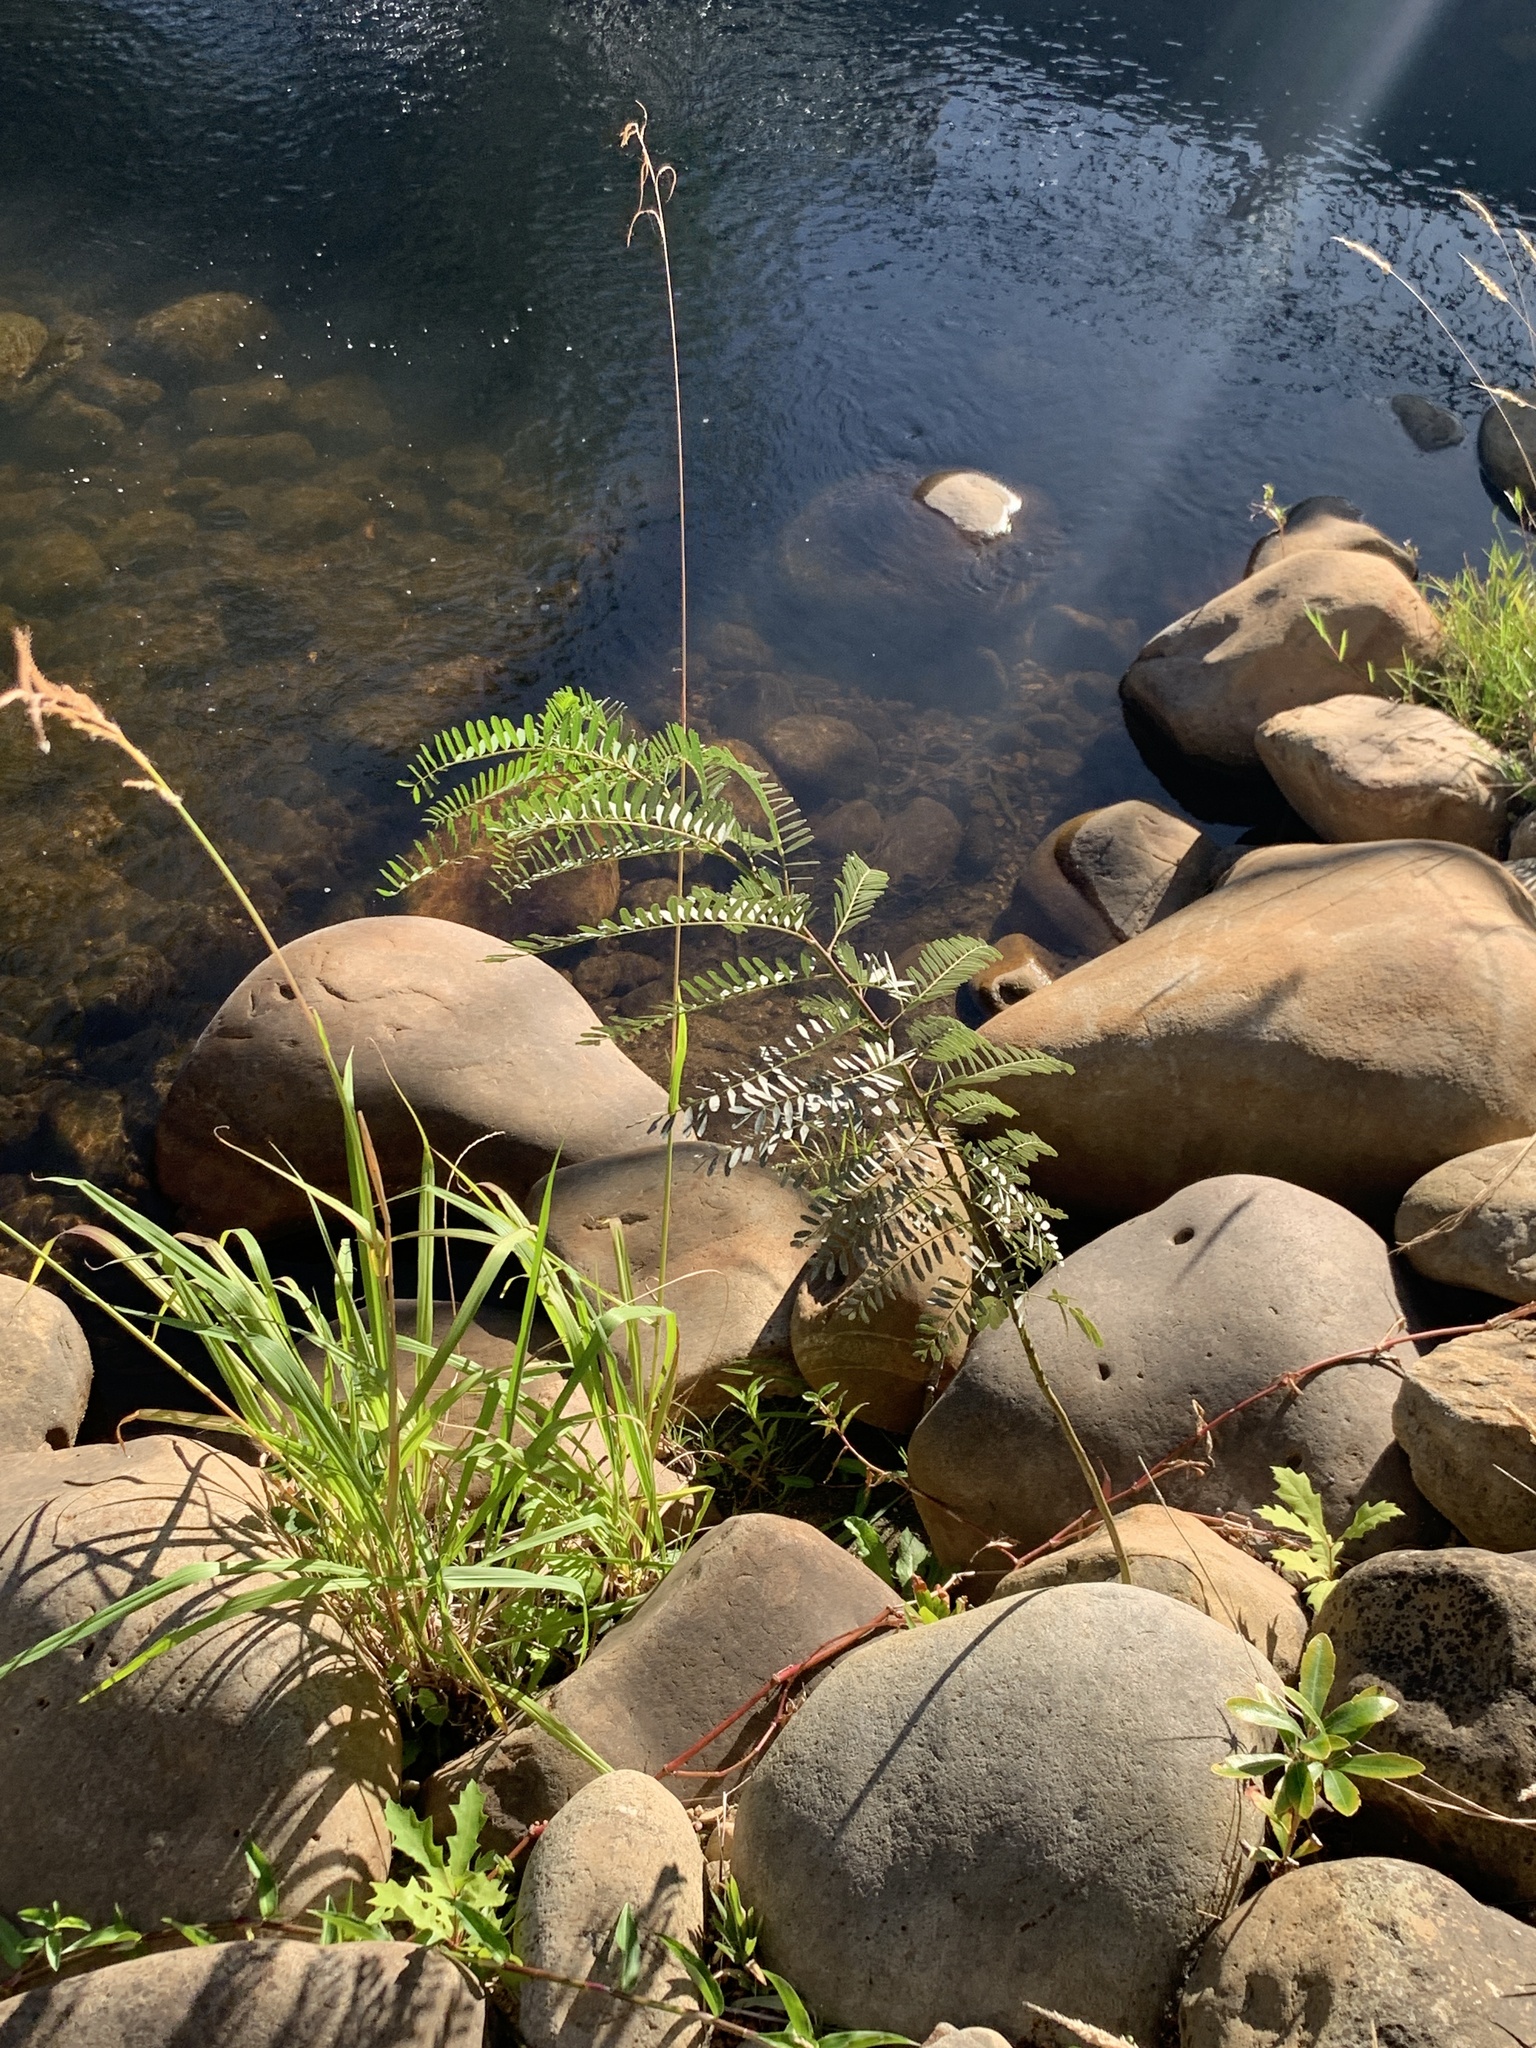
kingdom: Plantae
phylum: Tracheophyta
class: Magnoliopsida
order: Fabales
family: Fabaceae
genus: Sesbania
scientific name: Sesbania punicea
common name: Rattlebox
